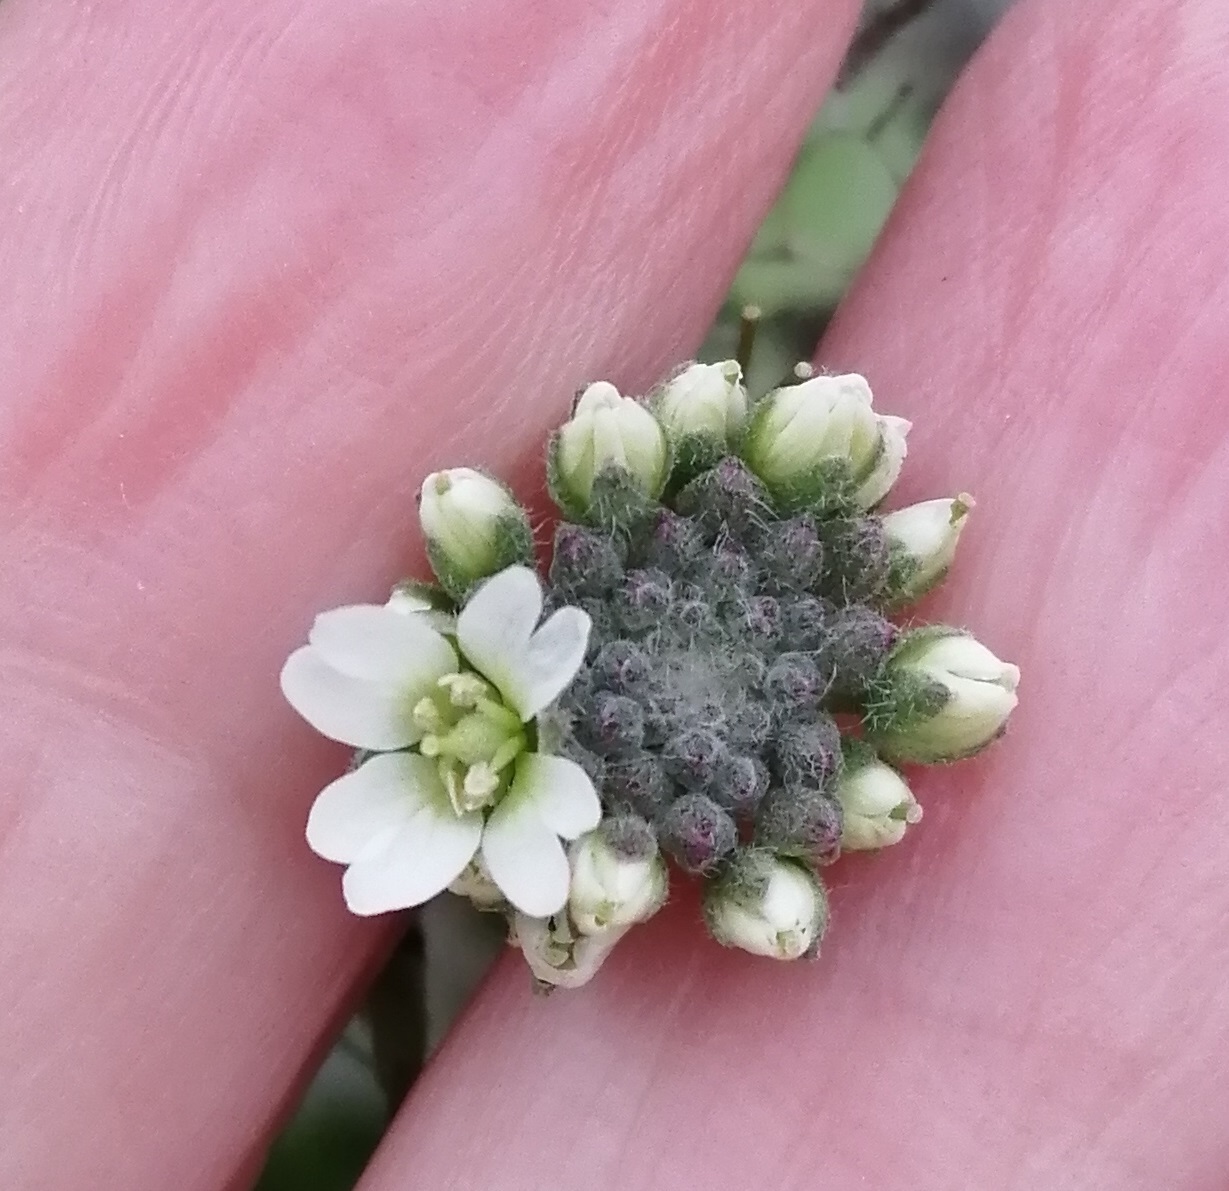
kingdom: Plantae
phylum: Tracheophyta
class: Magnoliopsida
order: Brassicales
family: Brassicaceae
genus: Berteroa
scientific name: Berteroa incana
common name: Hoary alison
